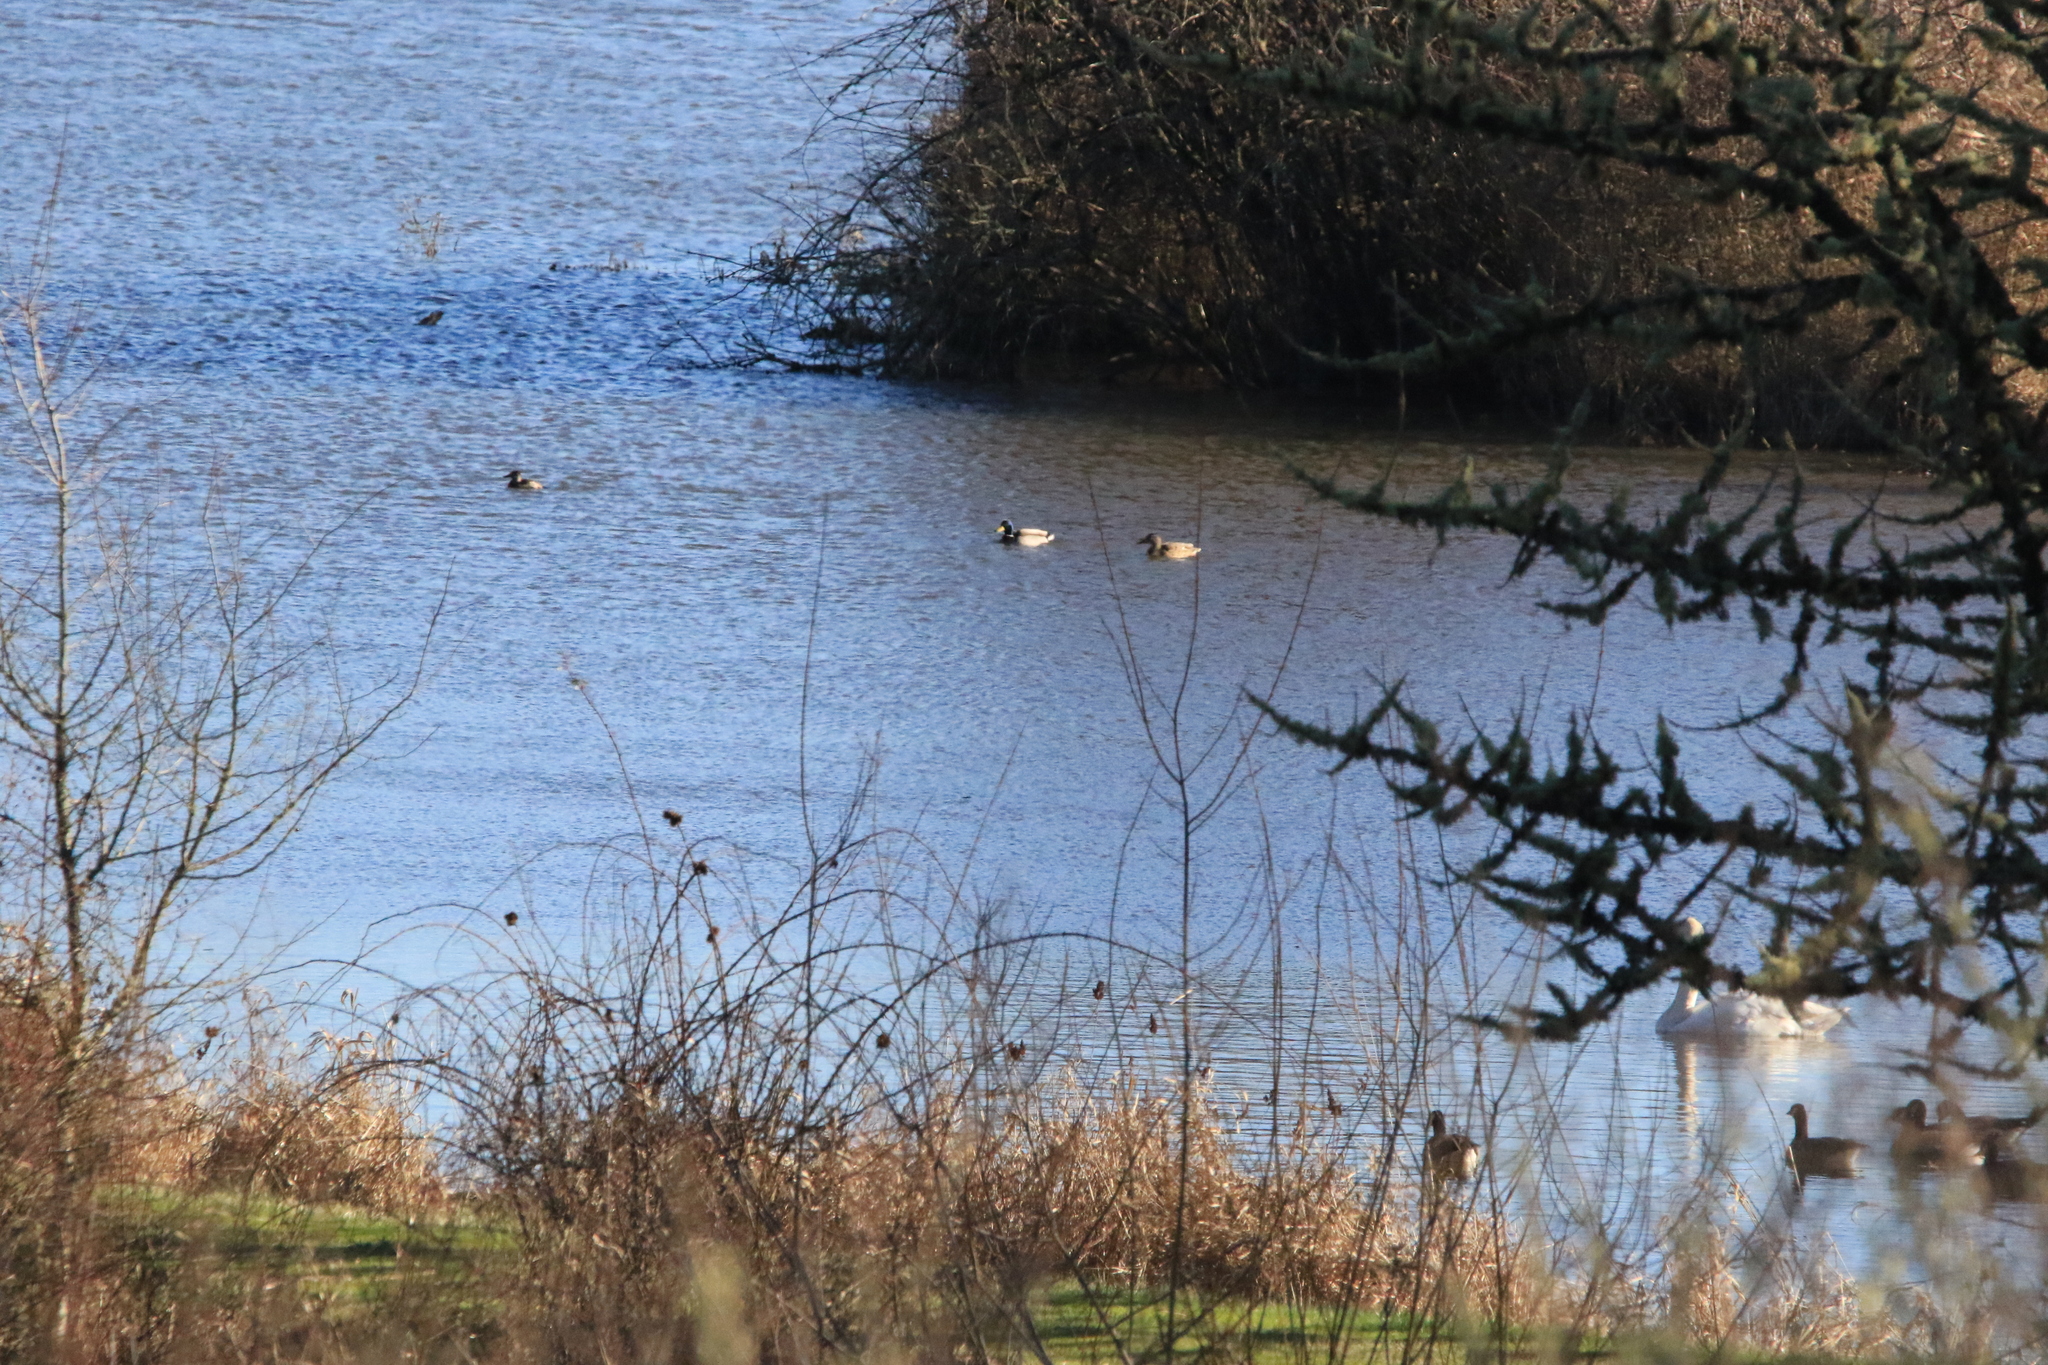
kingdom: Animalia
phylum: Chordata
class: Aves
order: Anseriformes
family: Anatidae
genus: Anas
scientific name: Anas platyrhynchos
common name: Mallard
